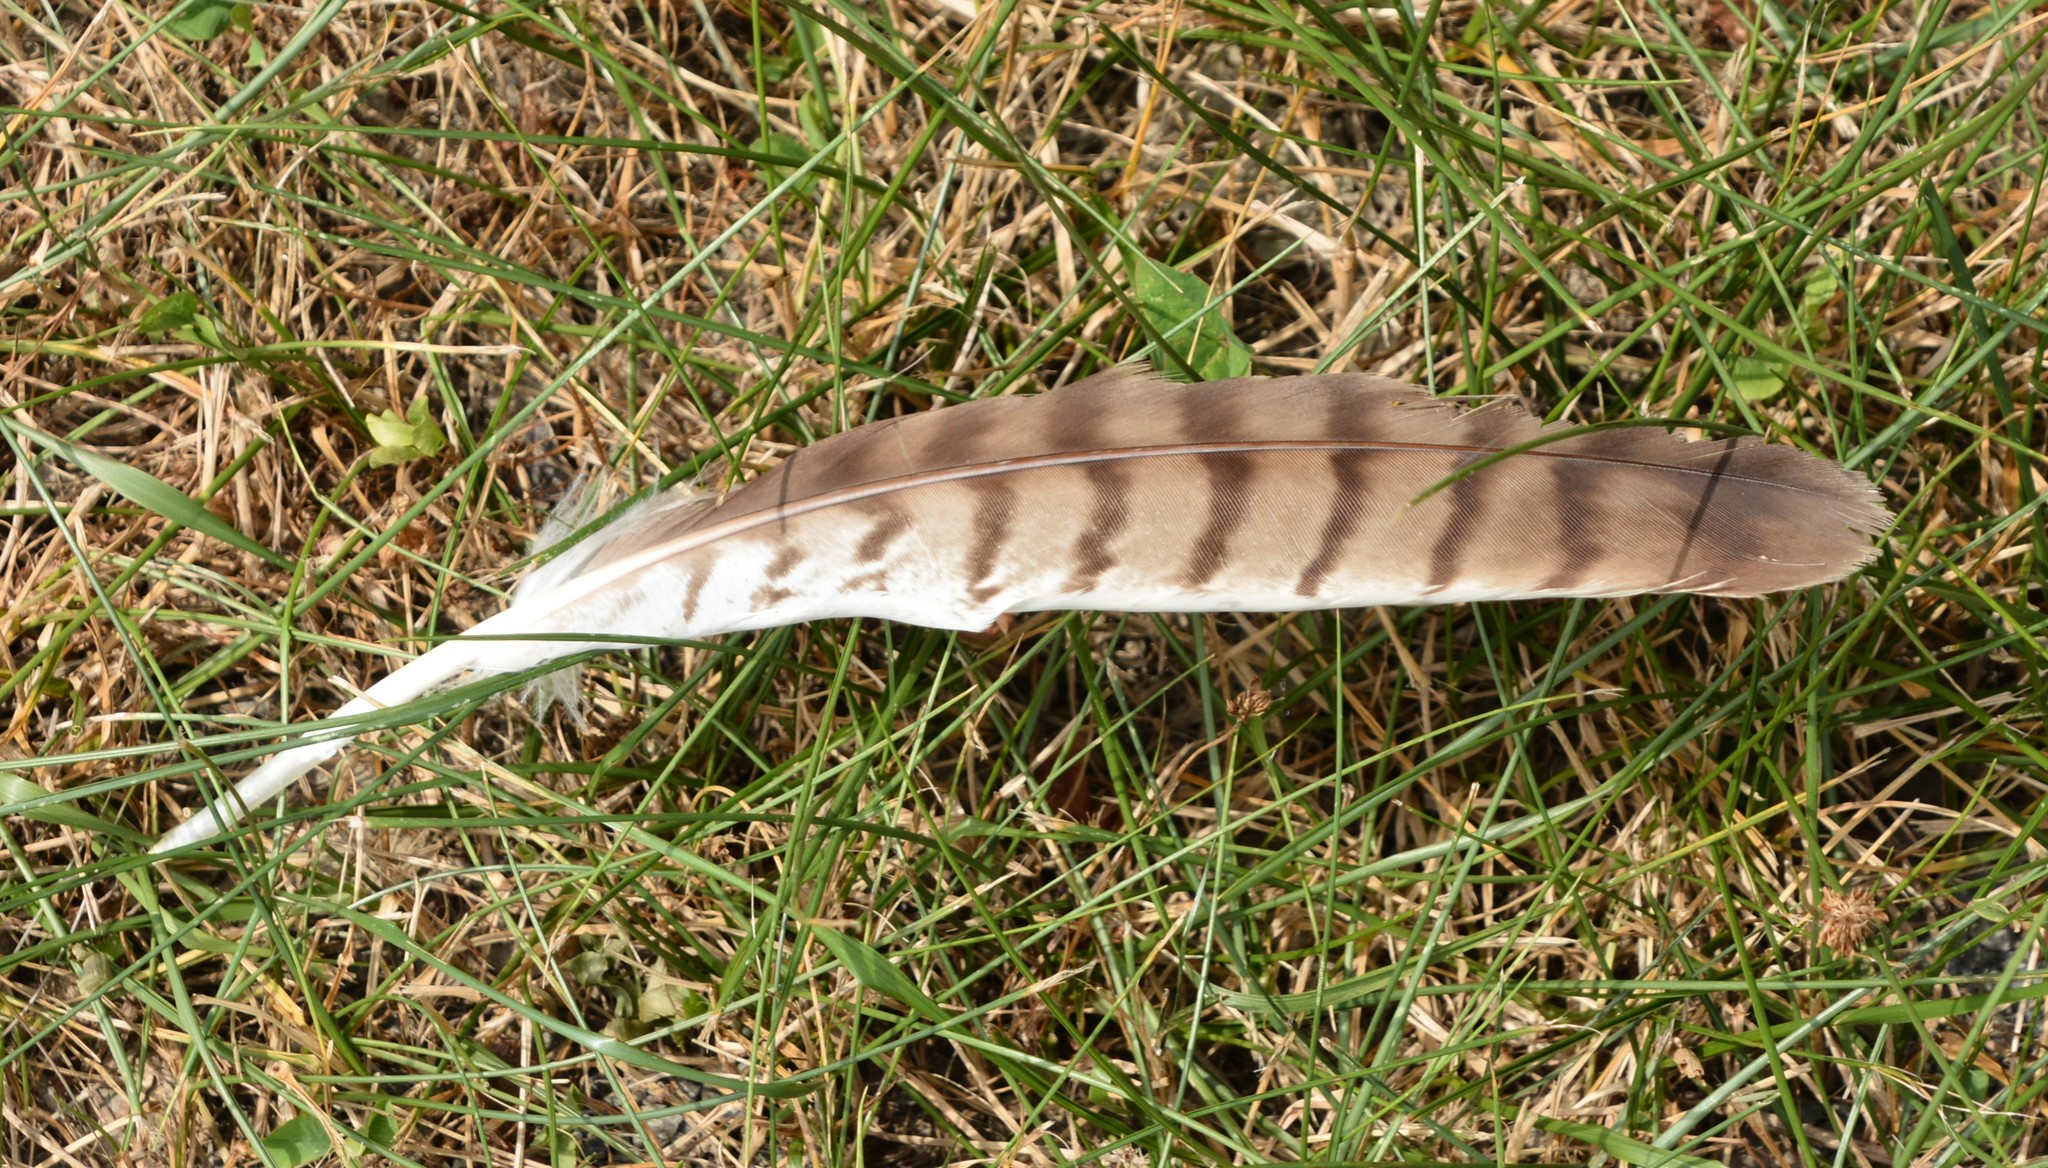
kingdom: Animalia
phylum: Chordata
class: Aves
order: Accipitriformes
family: Accipitridae
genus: Buteo
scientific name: Buteo jamaicensis
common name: Red-tailed hawk
